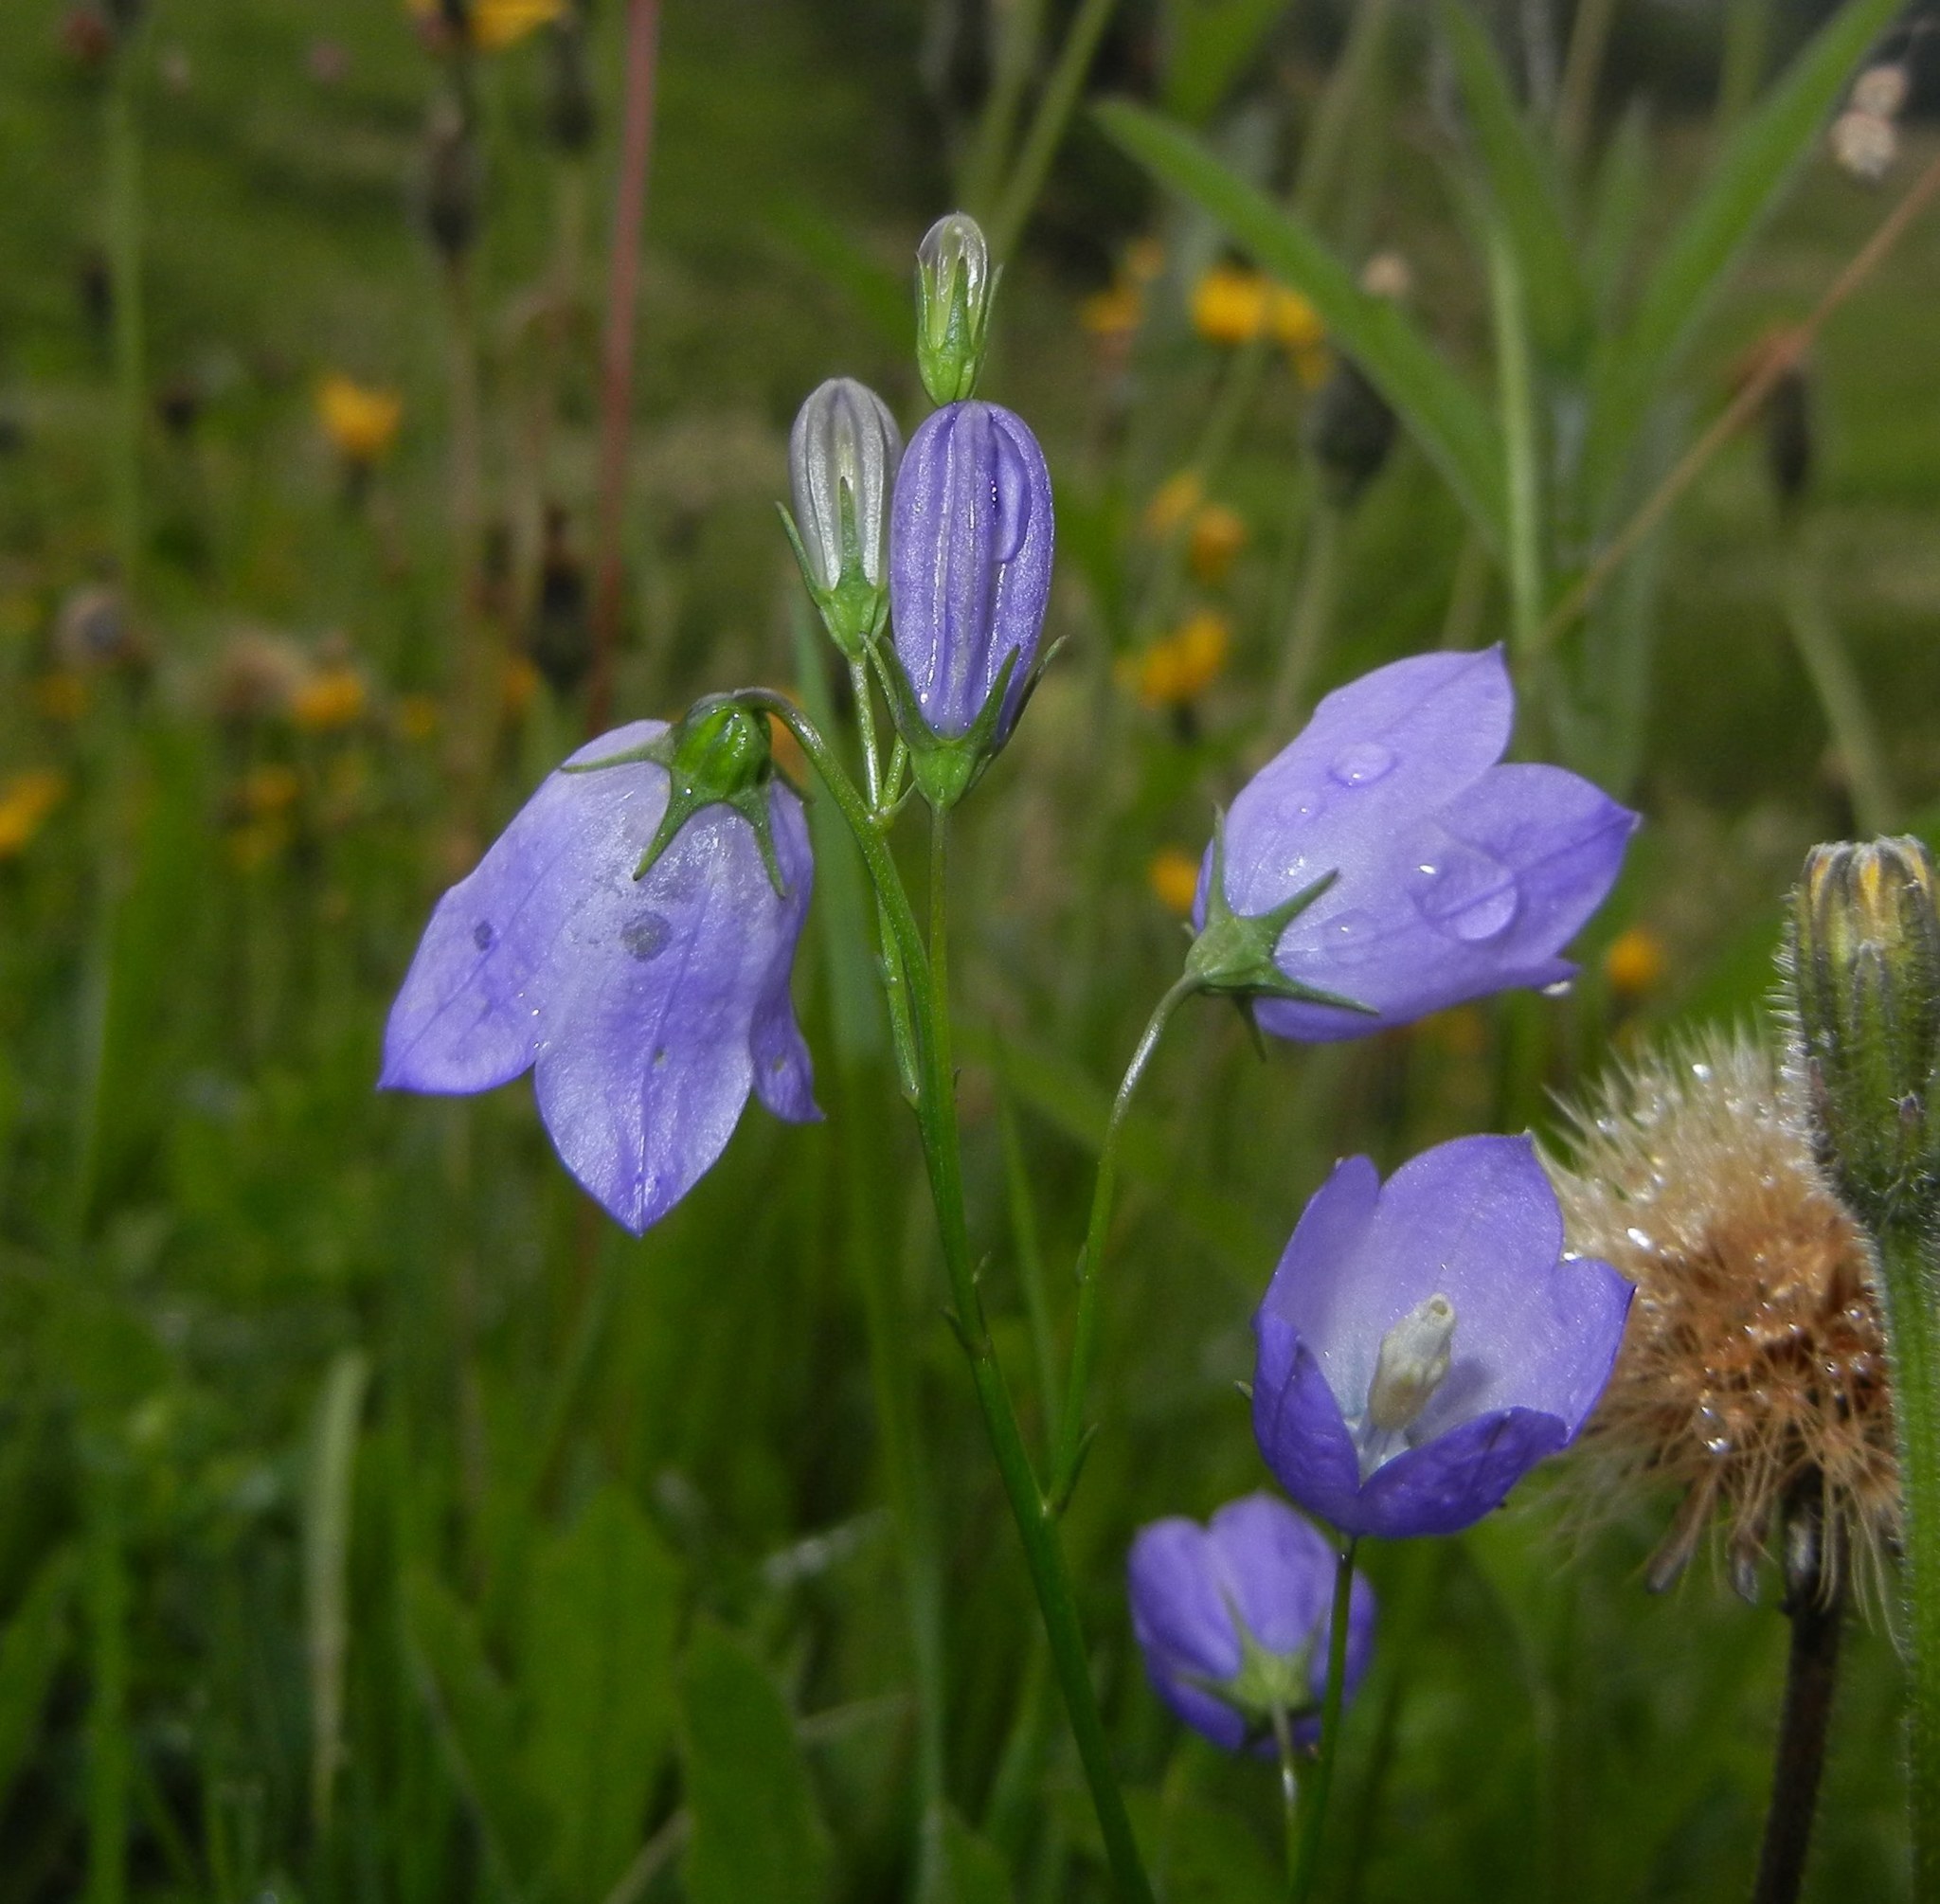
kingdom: Plantae
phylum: Tracheophyta
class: Magnoliopsida
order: Asterales
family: Campanulaceae
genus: Campanula
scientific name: Campanula rotundifolia
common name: Harebell
